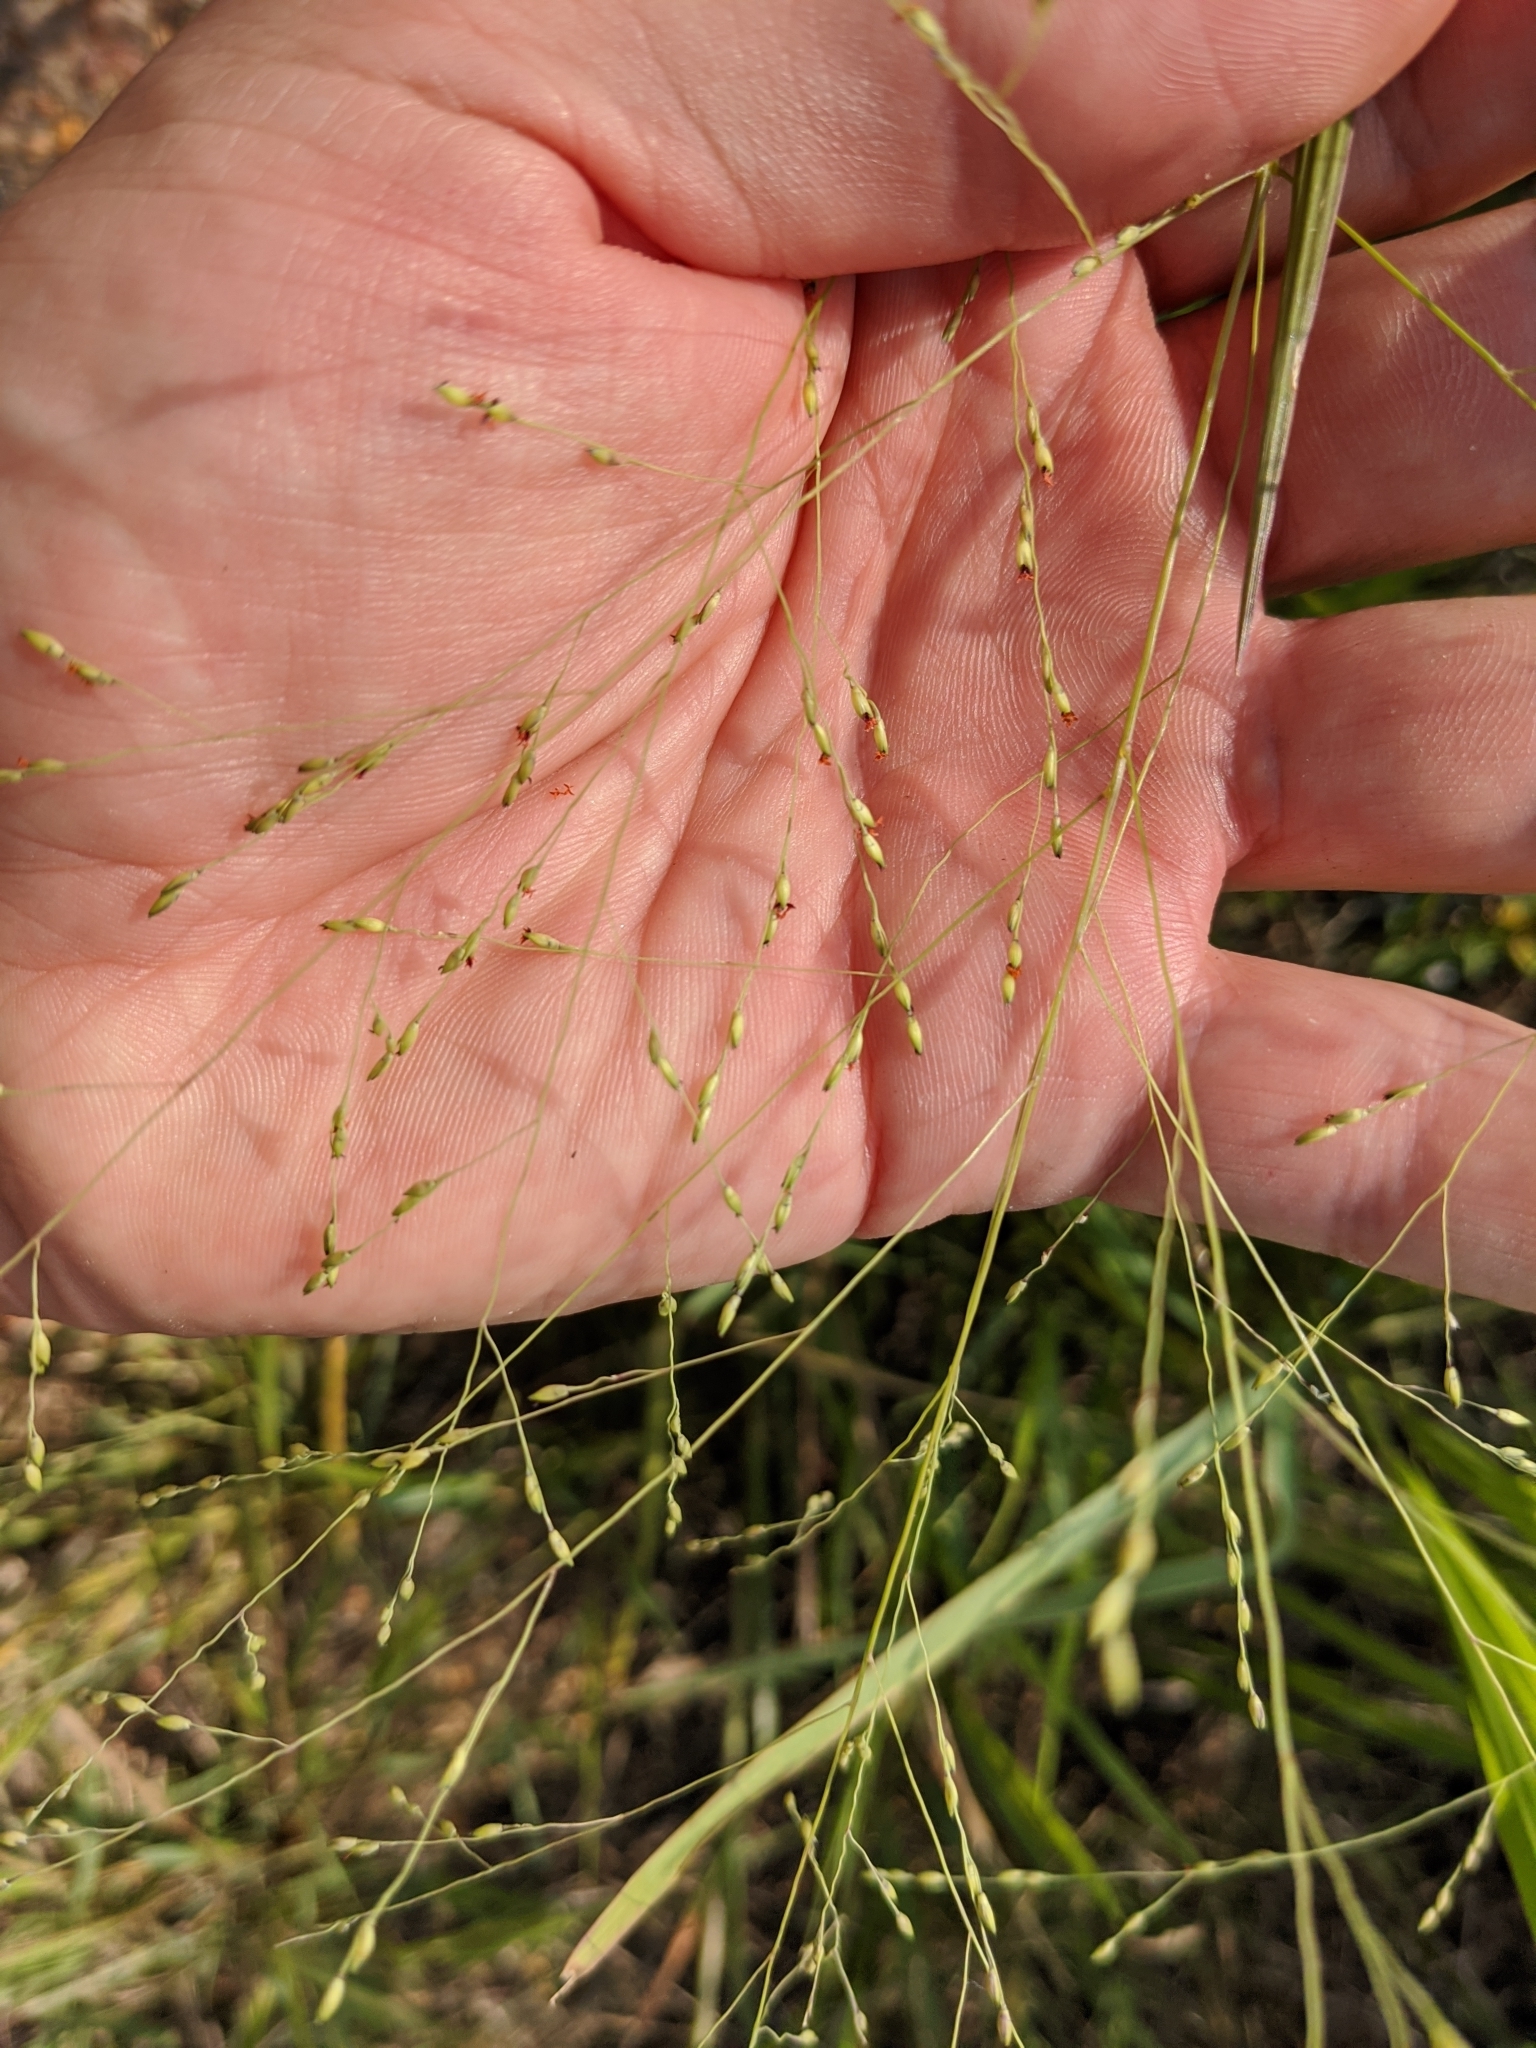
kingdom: Plantae
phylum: Tracheophyta
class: Liliopsida
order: Poales
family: Poaceae
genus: Panicum
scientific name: Panicum dichotomiflorum
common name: Autumn millet
